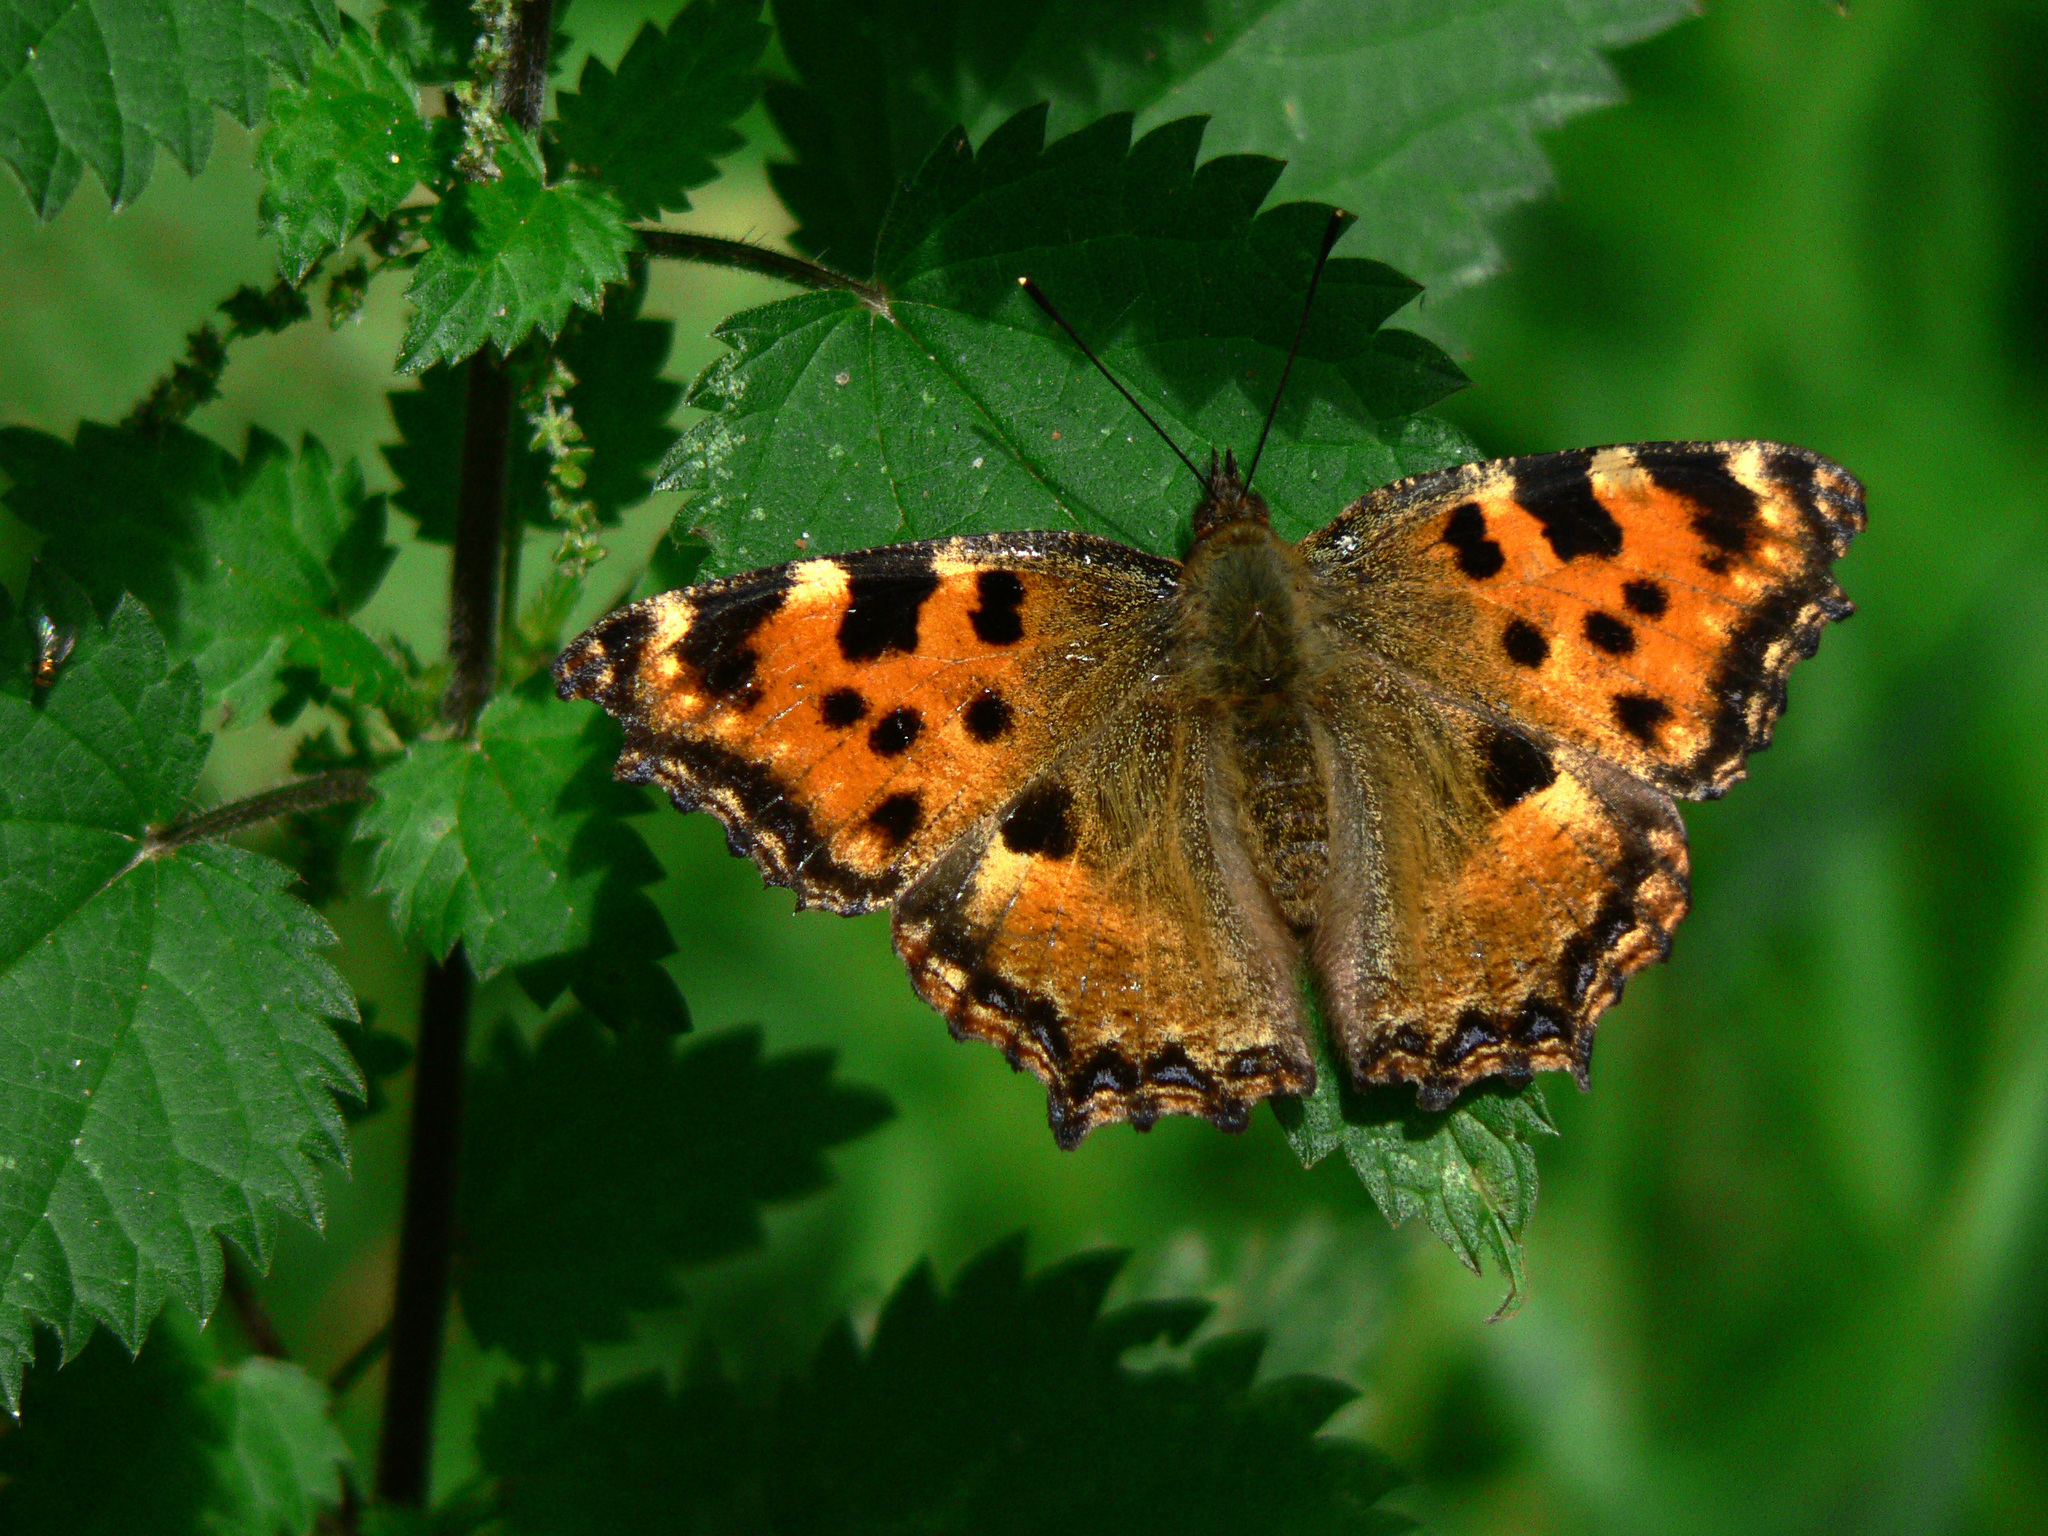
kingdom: Animalia
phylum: Arthropoda
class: Insecta
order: Lepidoptera
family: Nymphalidae
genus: Nymphalis
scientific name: Nymphalis polychloros
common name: Large tortoiseshell
